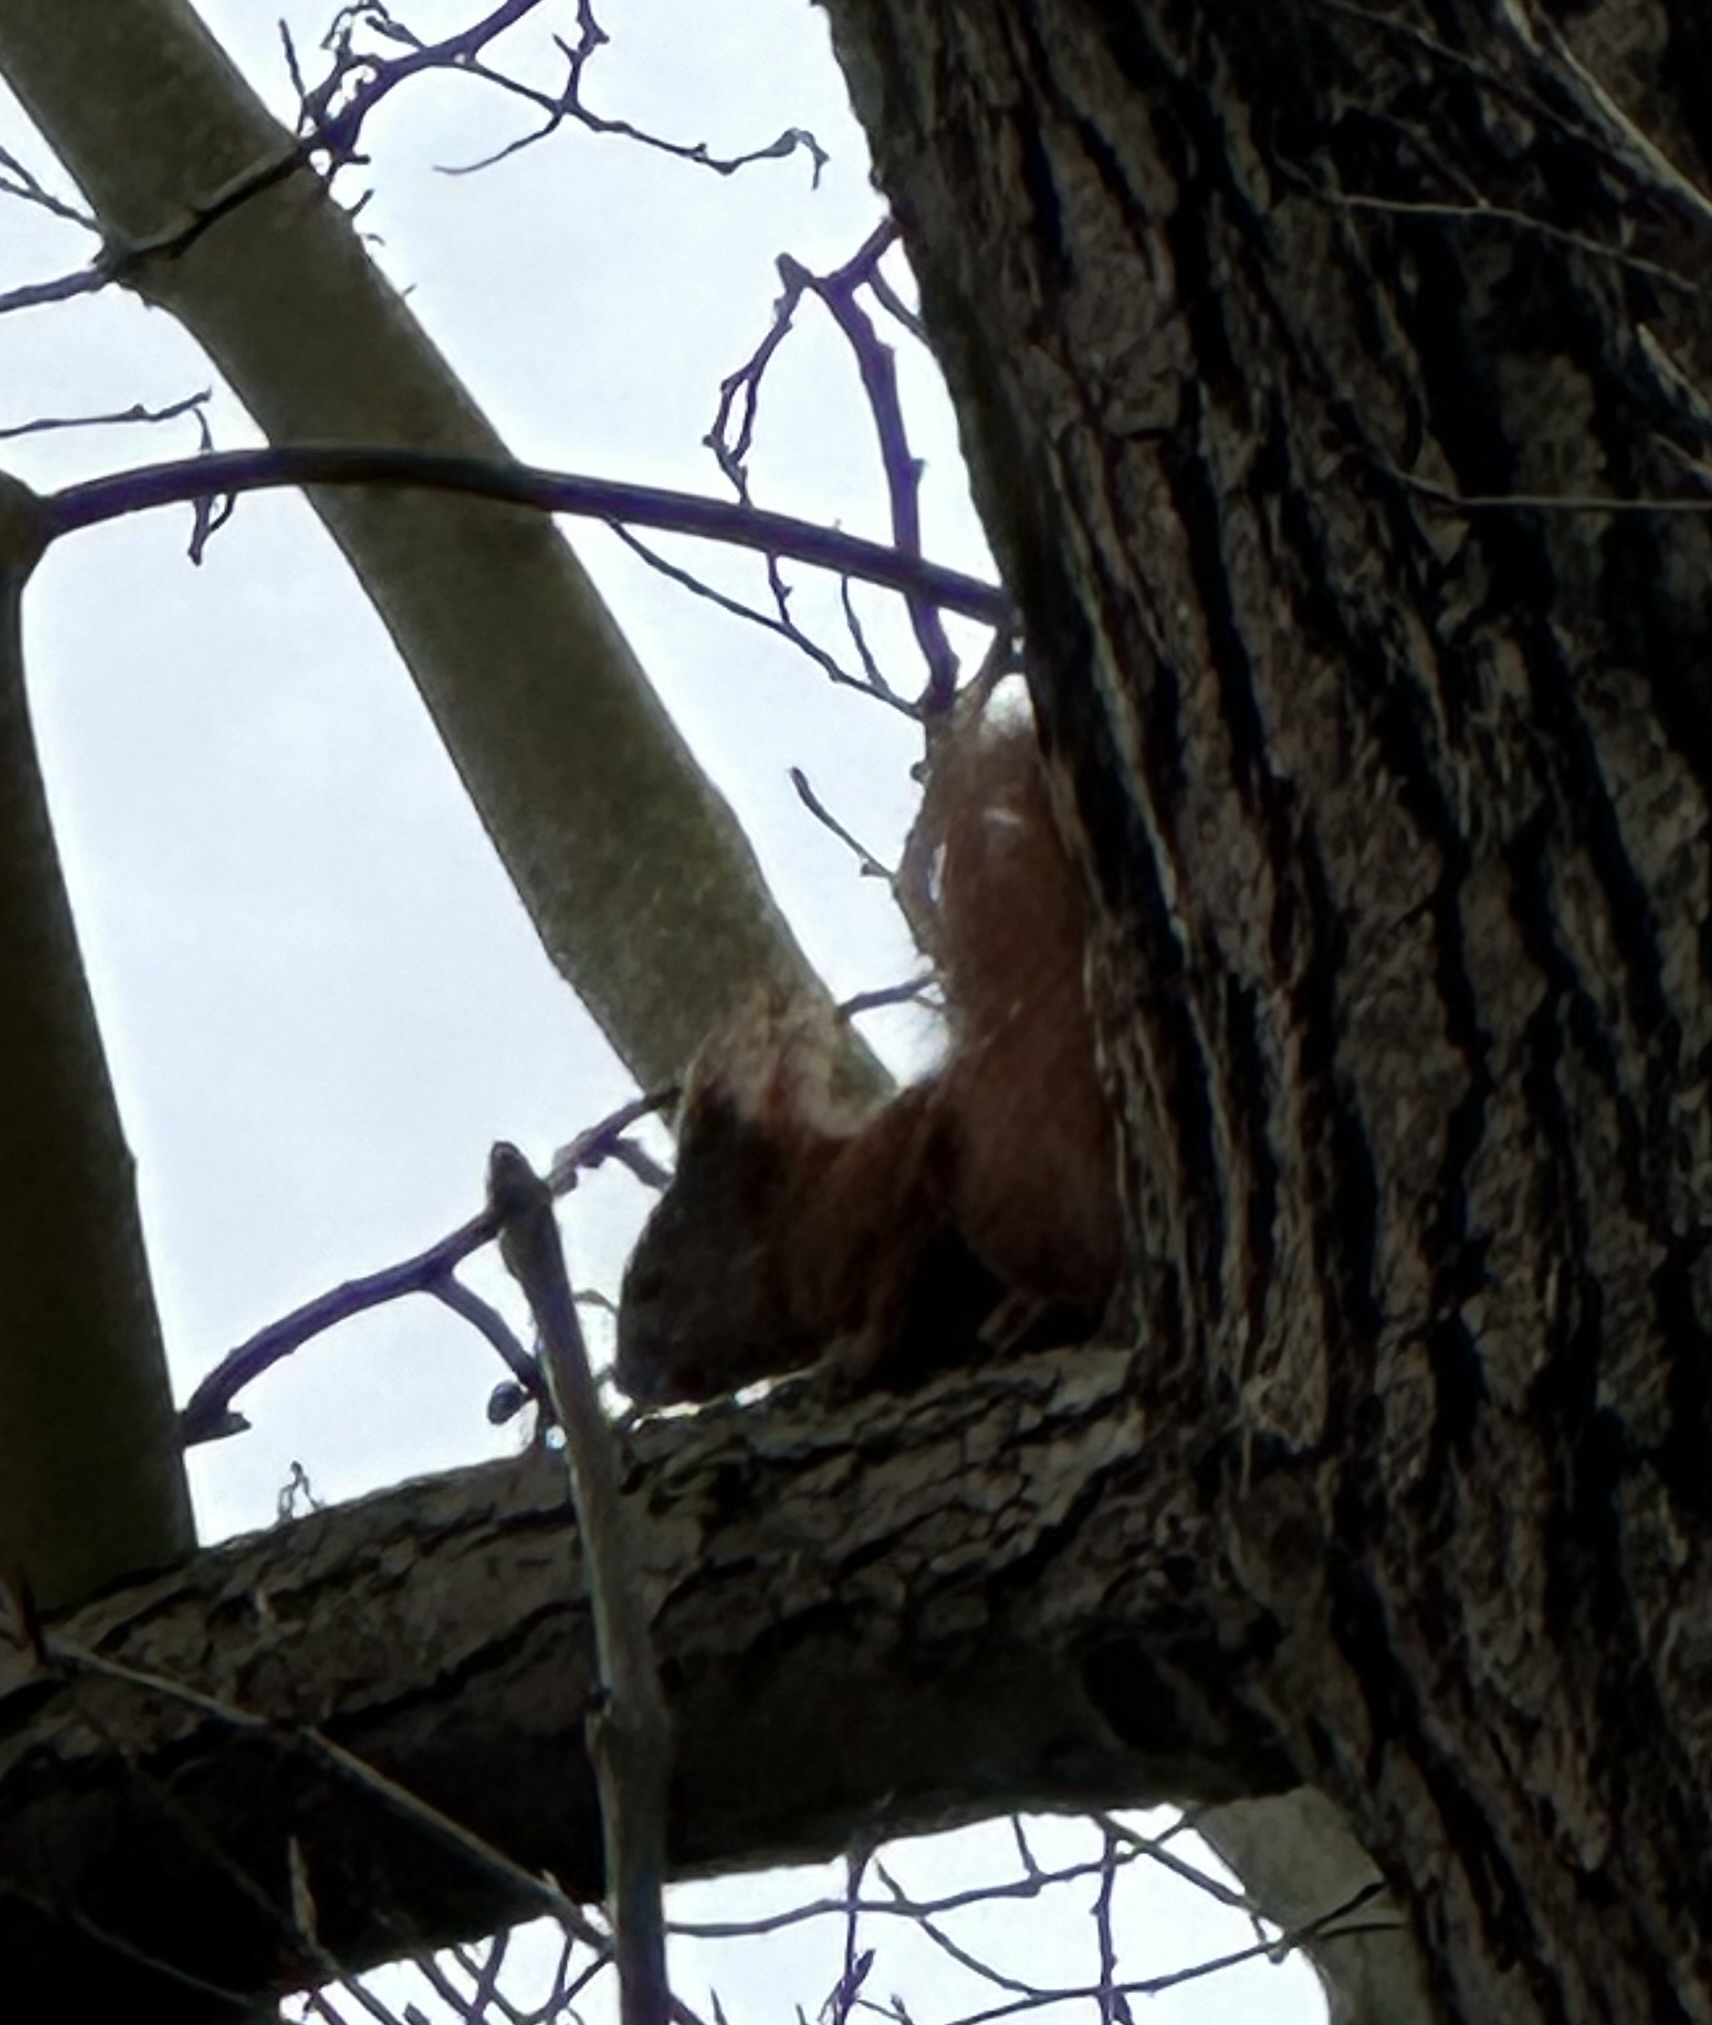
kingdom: Animalia
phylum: Chordata
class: Mammalia
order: Rodentia
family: Sciuridae
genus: Sciurus
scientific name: Sciurus vulgaris
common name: Eurasian red squirrel
